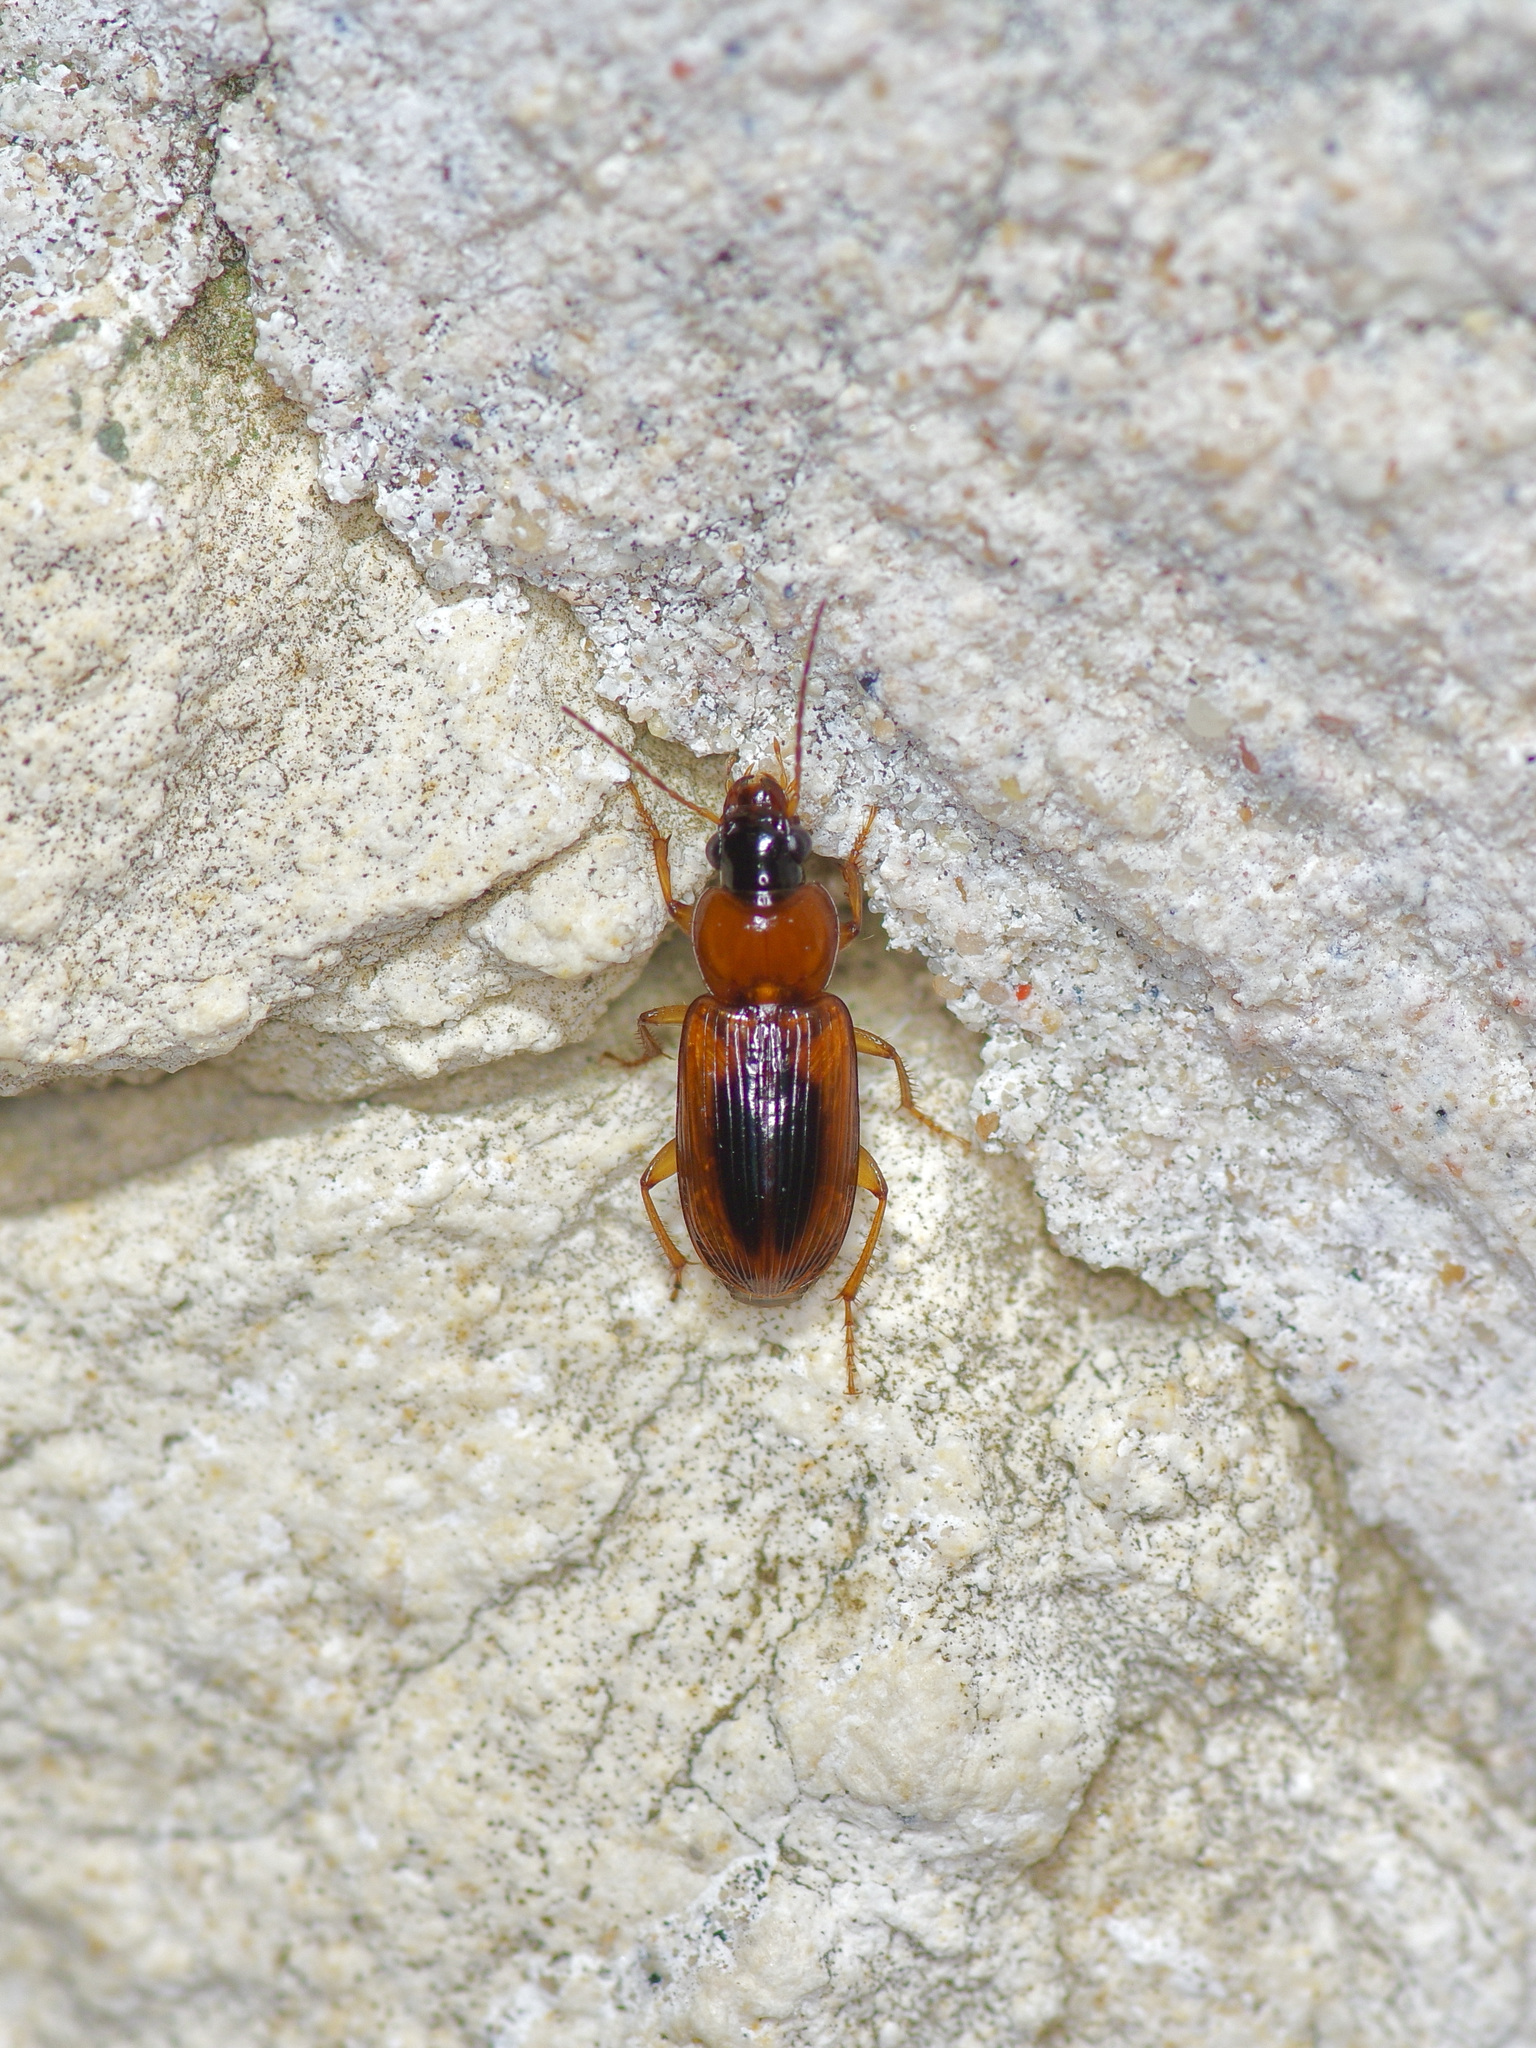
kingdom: Animalia
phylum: Arthropoda
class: Insecta
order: Coleoptera
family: Carabidae
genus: Stenolophus
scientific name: Stenolophus lecontei
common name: Leconte's seedcorn beetle
